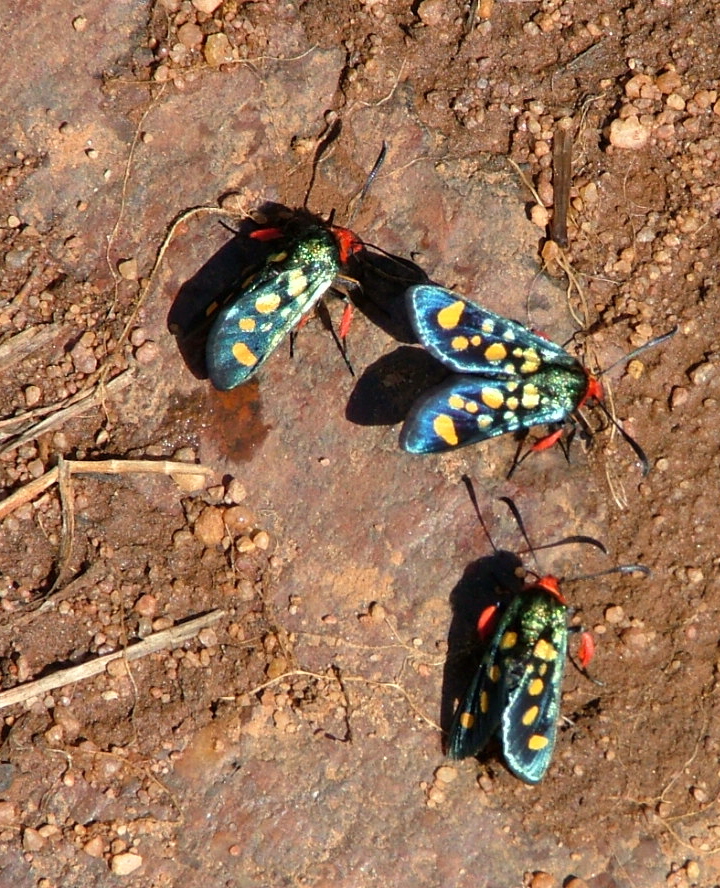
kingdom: Animalia
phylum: Arthropoda
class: Insecta
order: Lepidoptera
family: Thyrididae
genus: Arniocera
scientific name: Arniocera auriguttata
